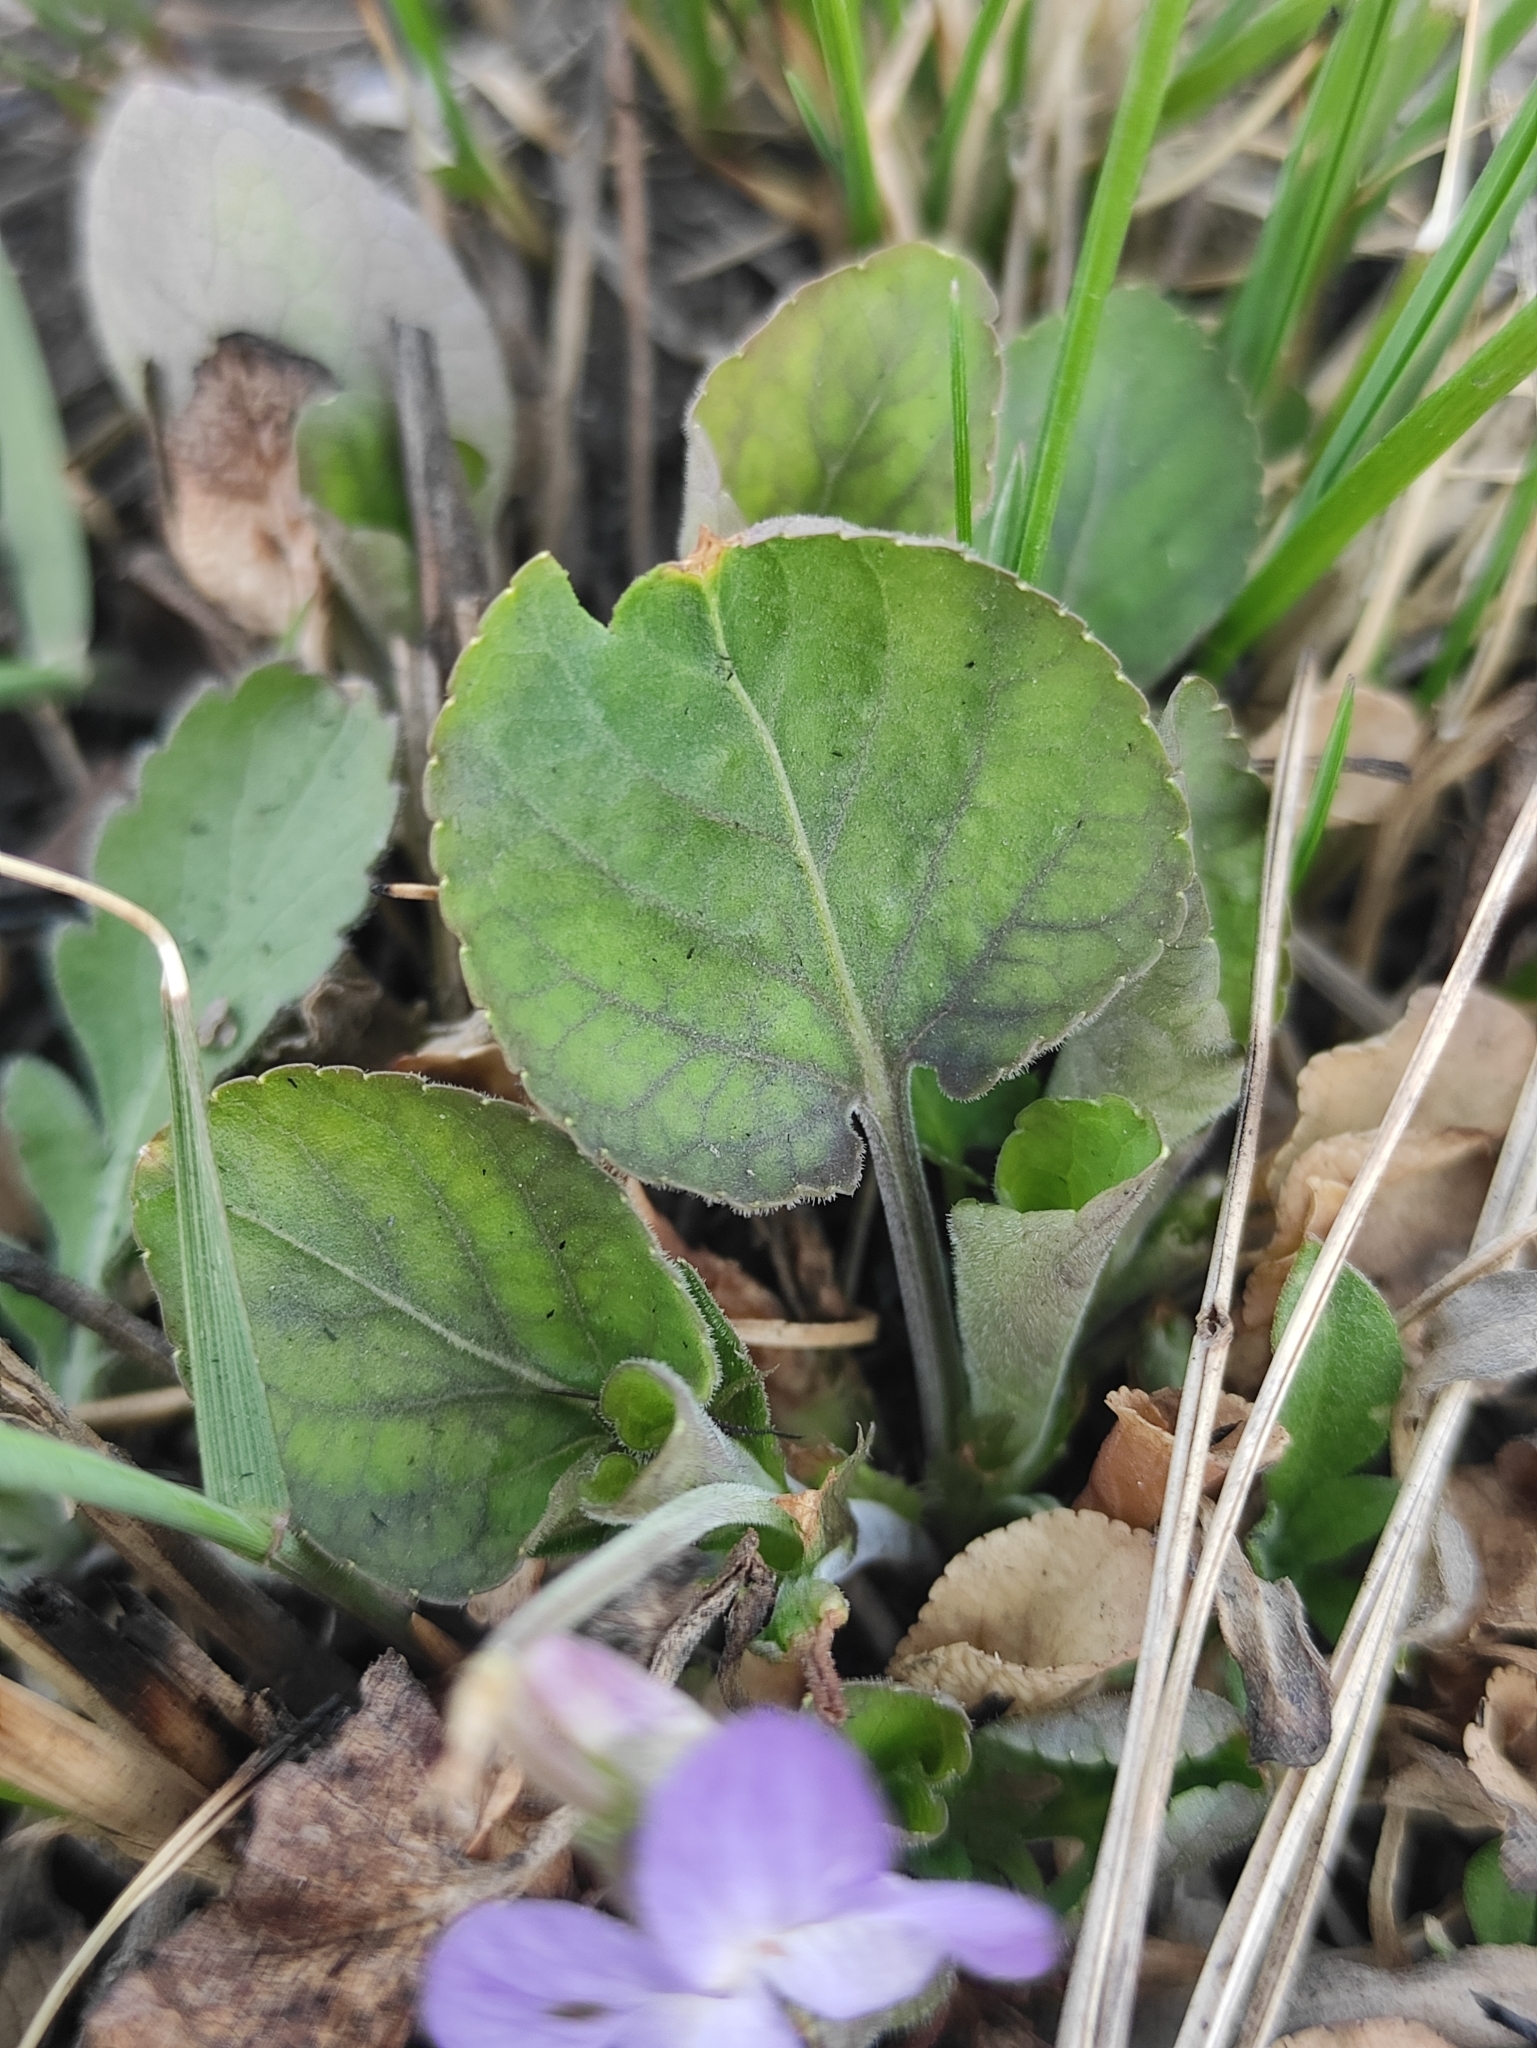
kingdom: Plantae
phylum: Tracheophyta
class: Magnoliopsida
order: Malpighiales
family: Violaceae
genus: Viola
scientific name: Viola rupestris
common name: Teesdale violet
